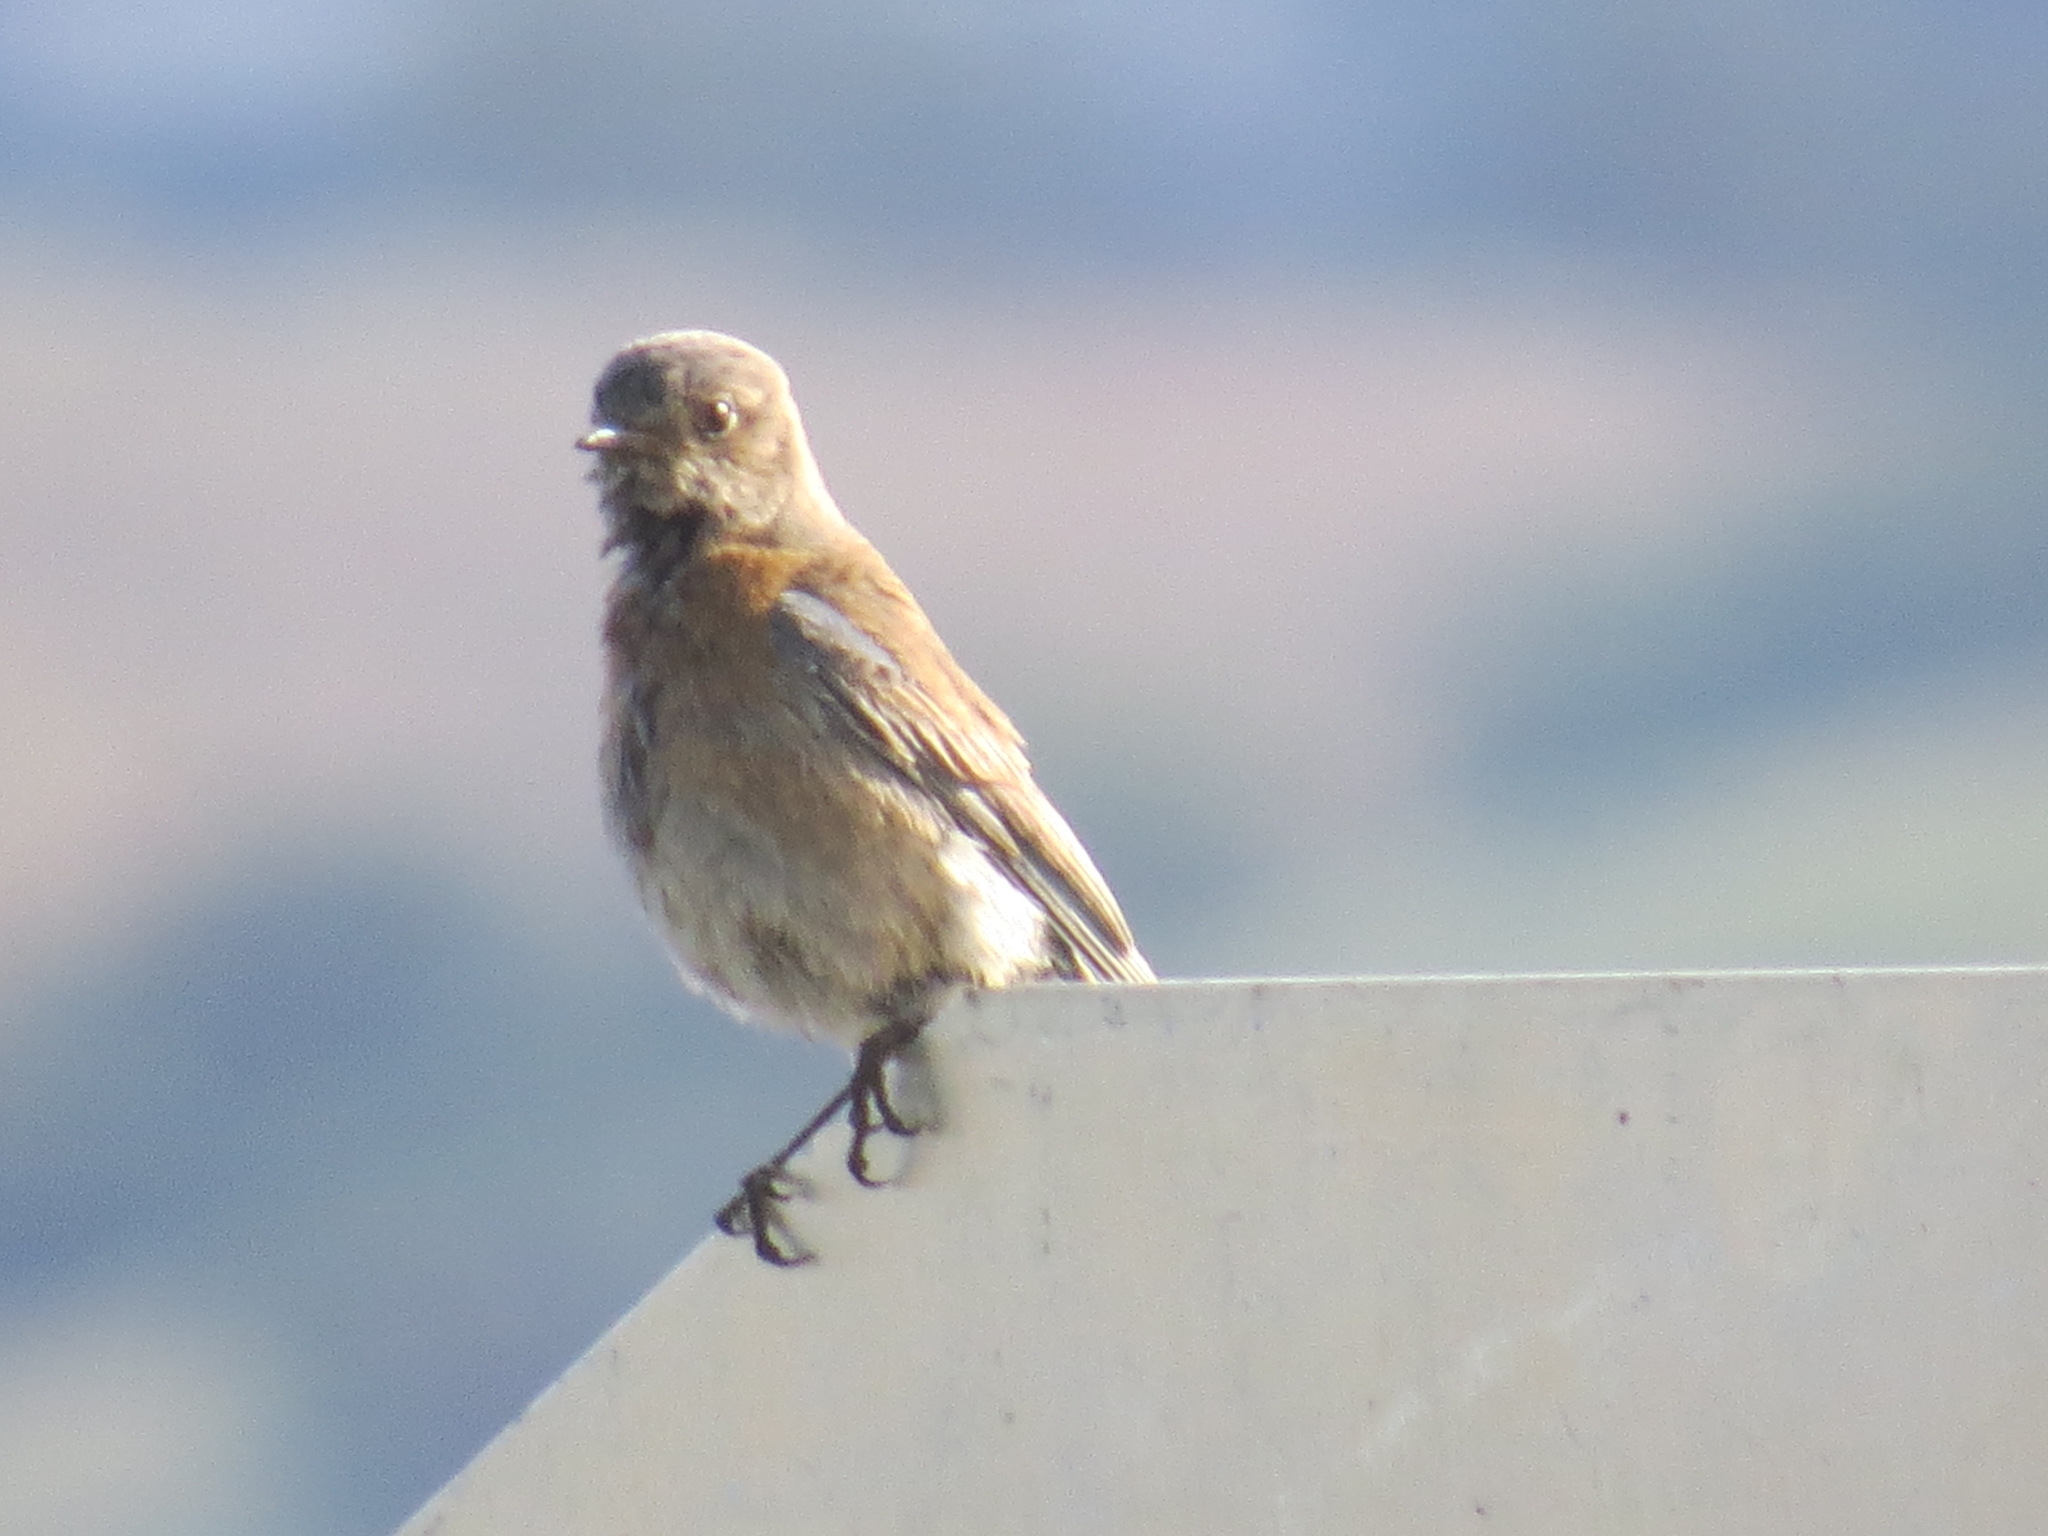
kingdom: Animalia
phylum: Chordata
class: Aves
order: Passeriformes
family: Turdidae
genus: Sialia
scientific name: Sialia mexicana
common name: Western bluebird
